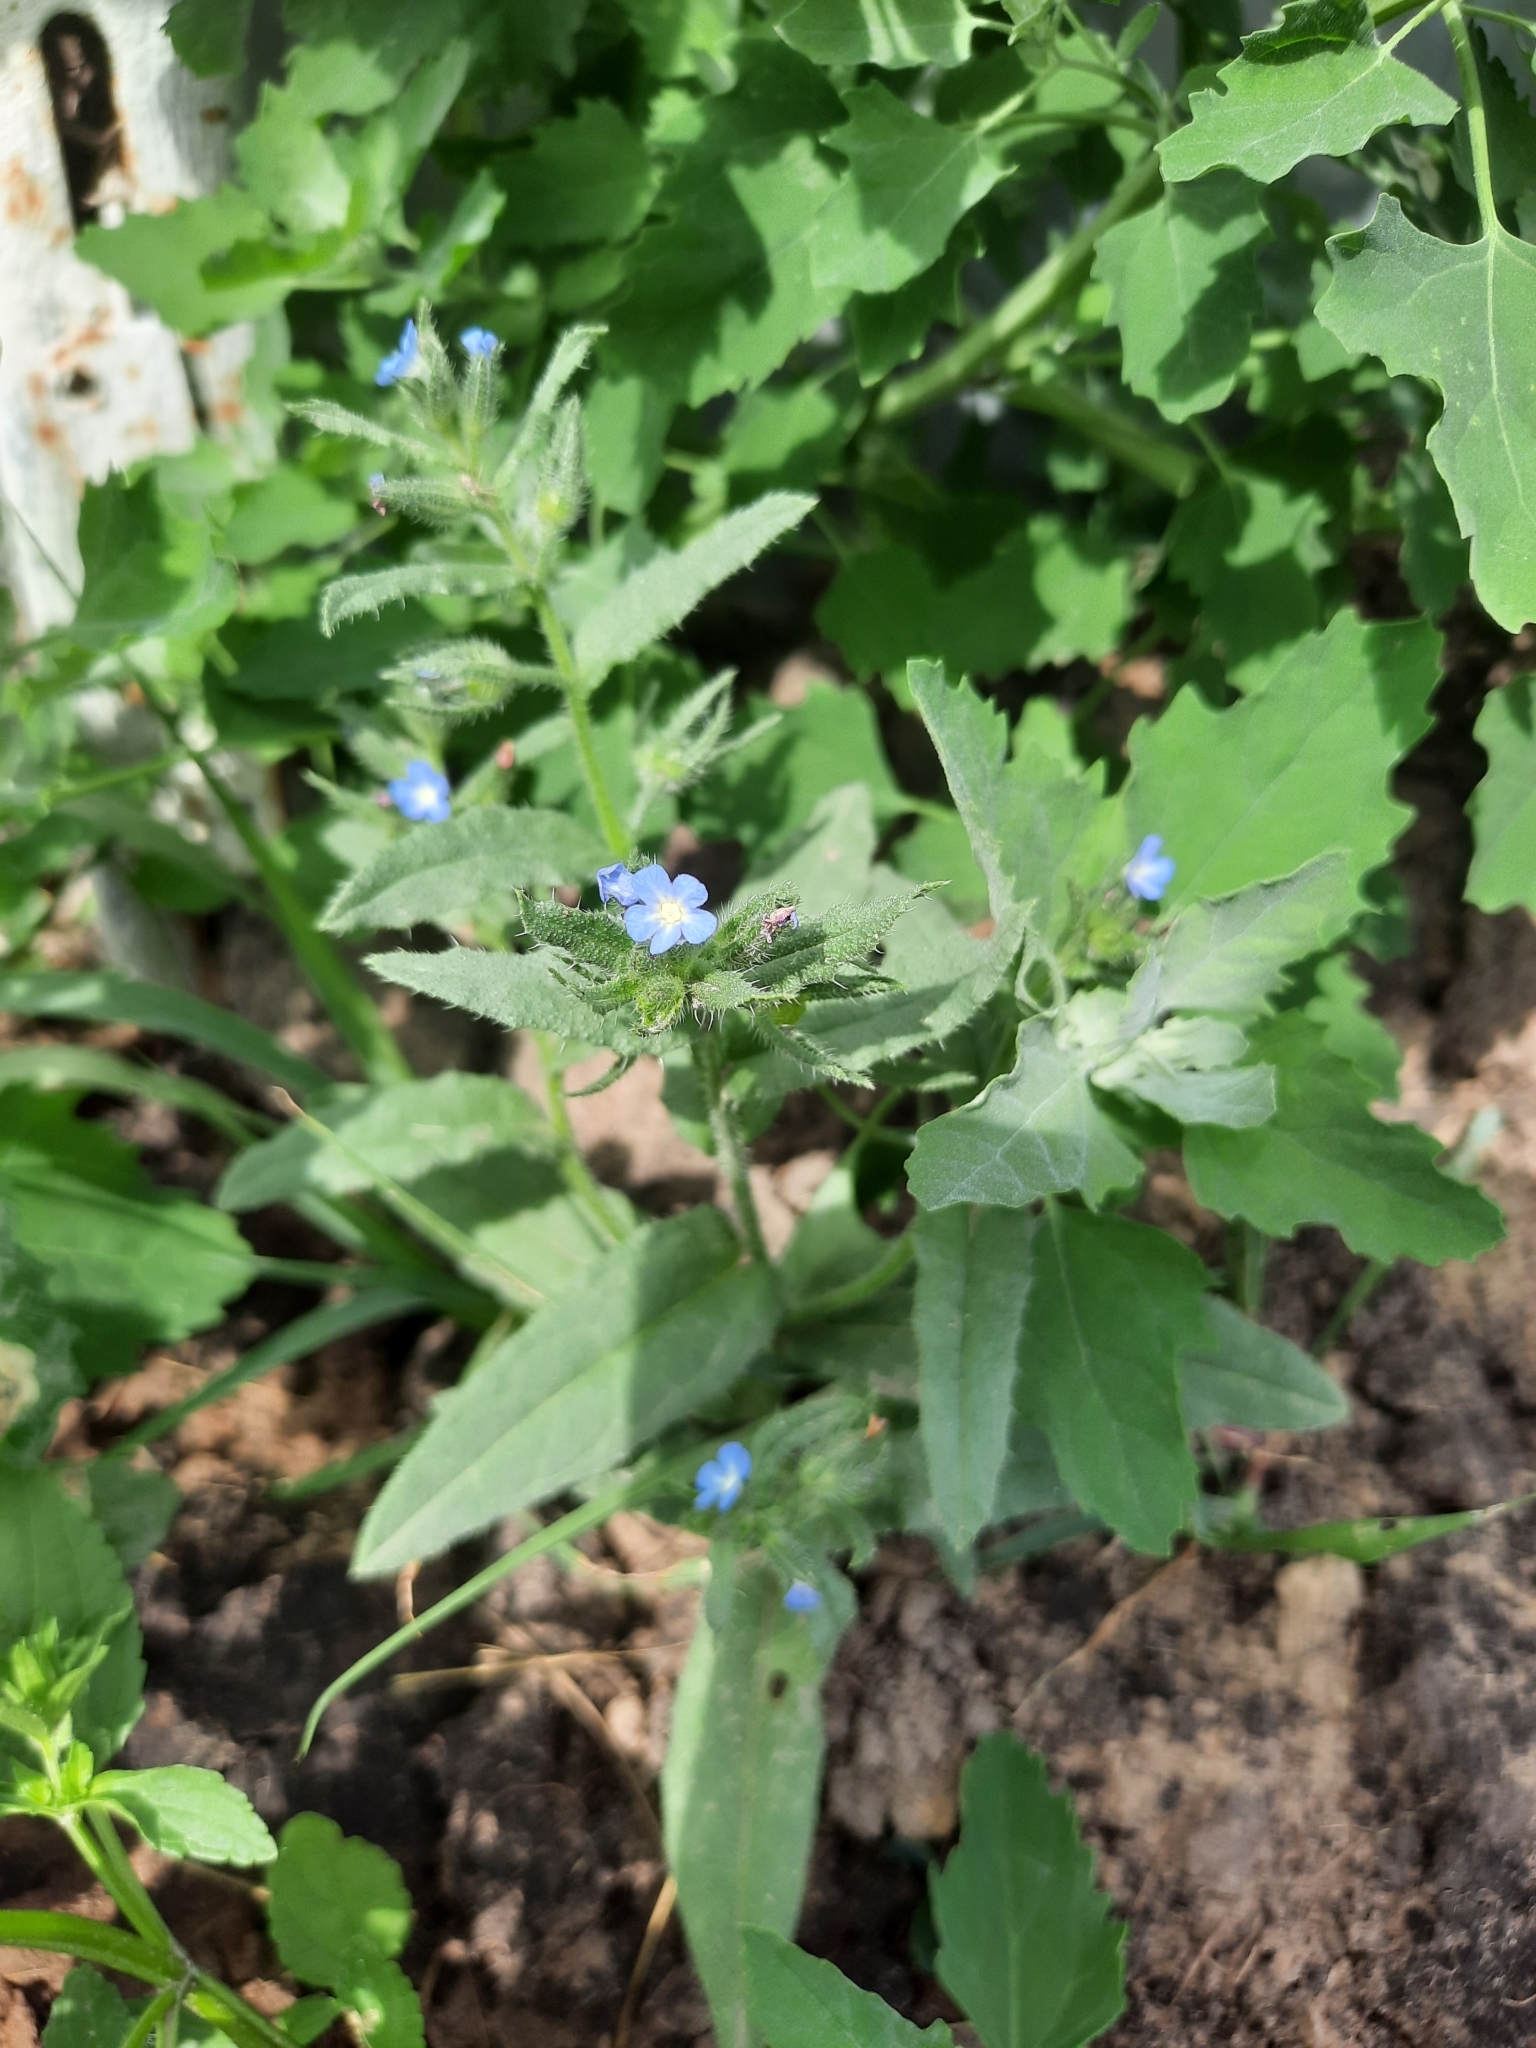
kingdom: Plantae
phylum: Tracheophyta
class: Magnoliopsida
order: Boraginales
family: Boraginaceae
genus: Lycopsis
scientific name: Lycopsis arvensis
